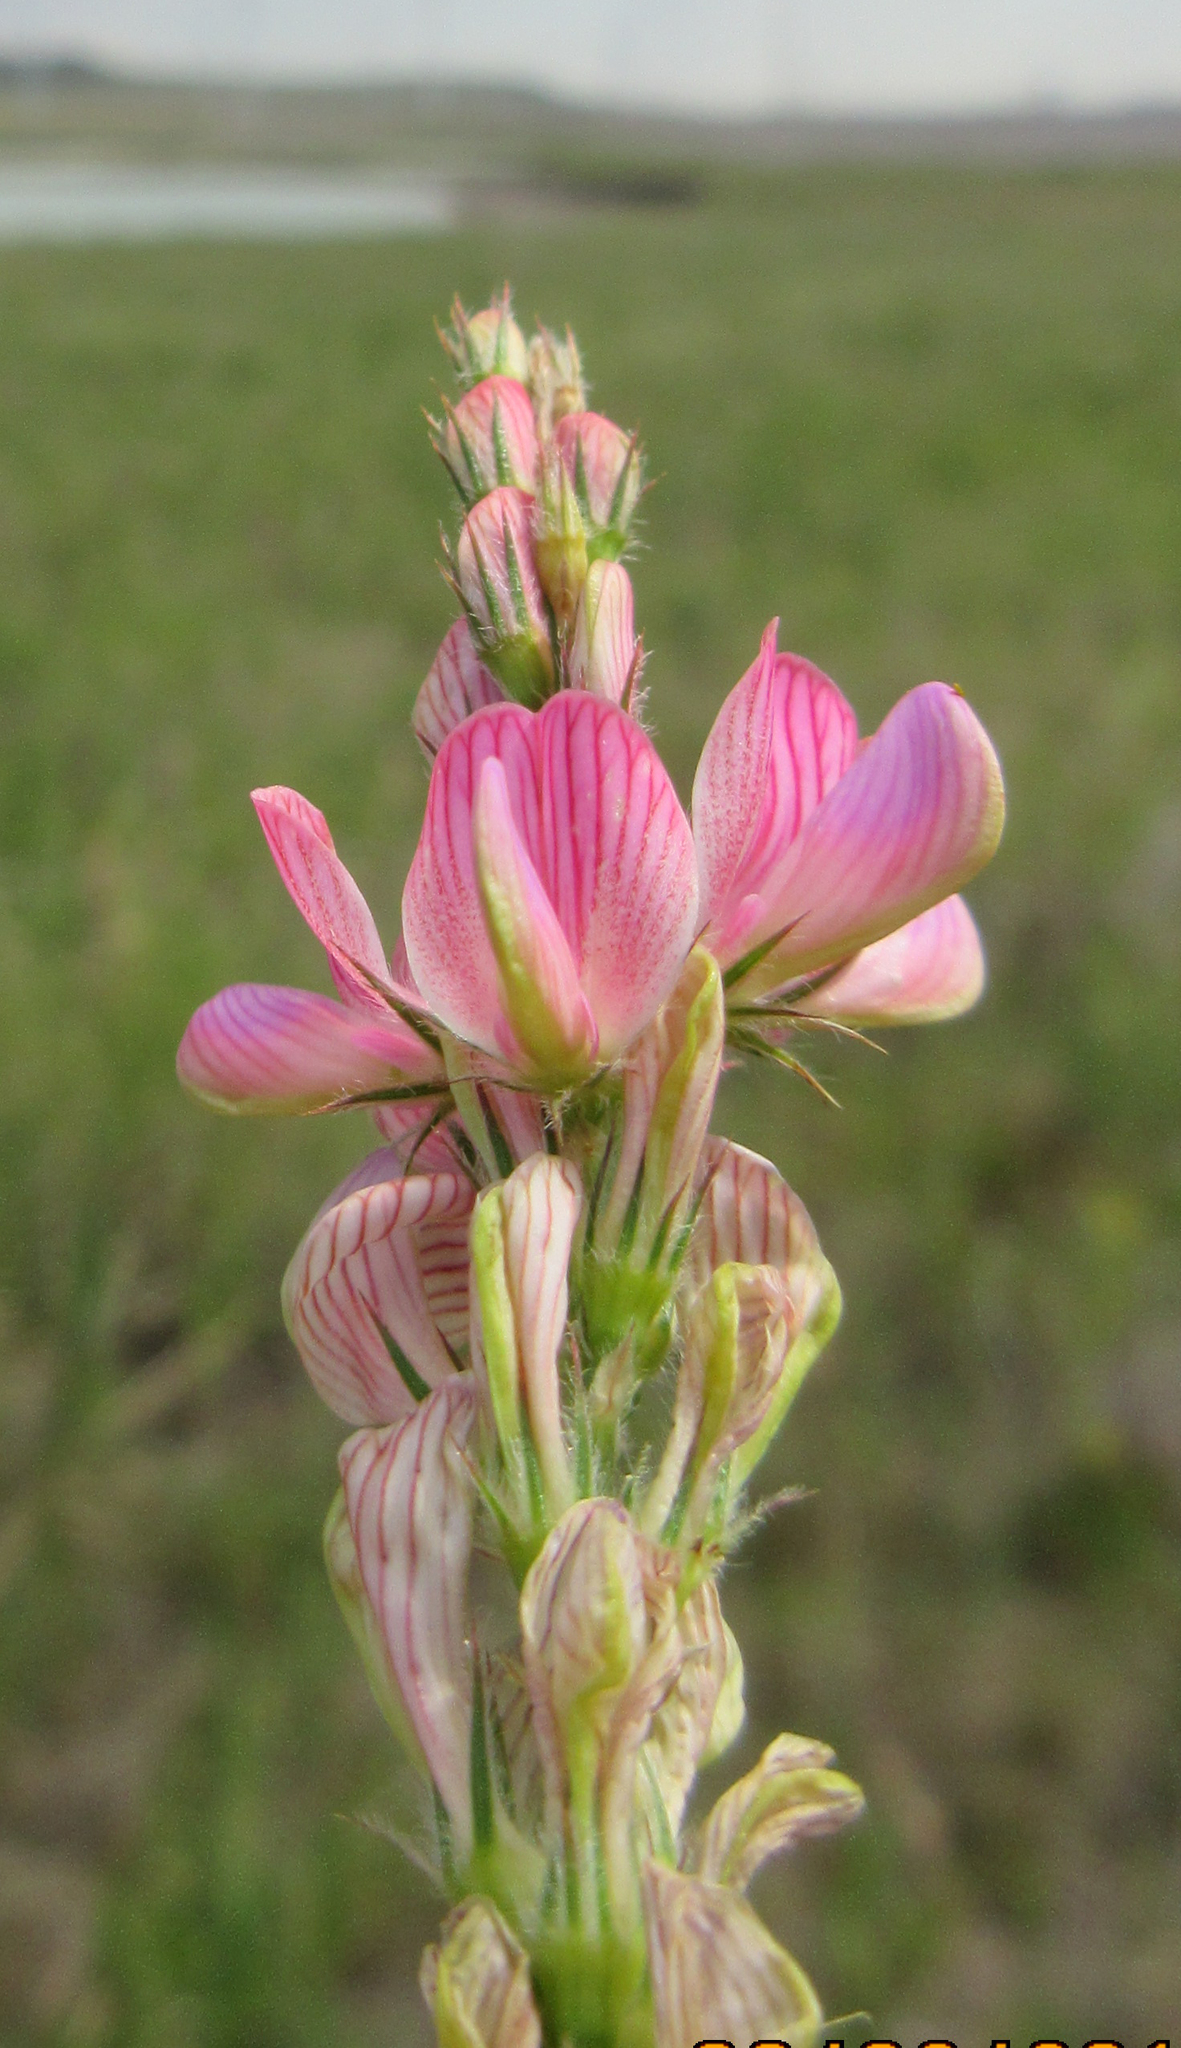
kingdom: Plantae
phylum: Tracheophyta
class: Magnoliopsida
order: Fabales
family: Fabaceae
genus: Onobrychis
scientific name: Onobrychis viciifolia
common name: Sainfoin
